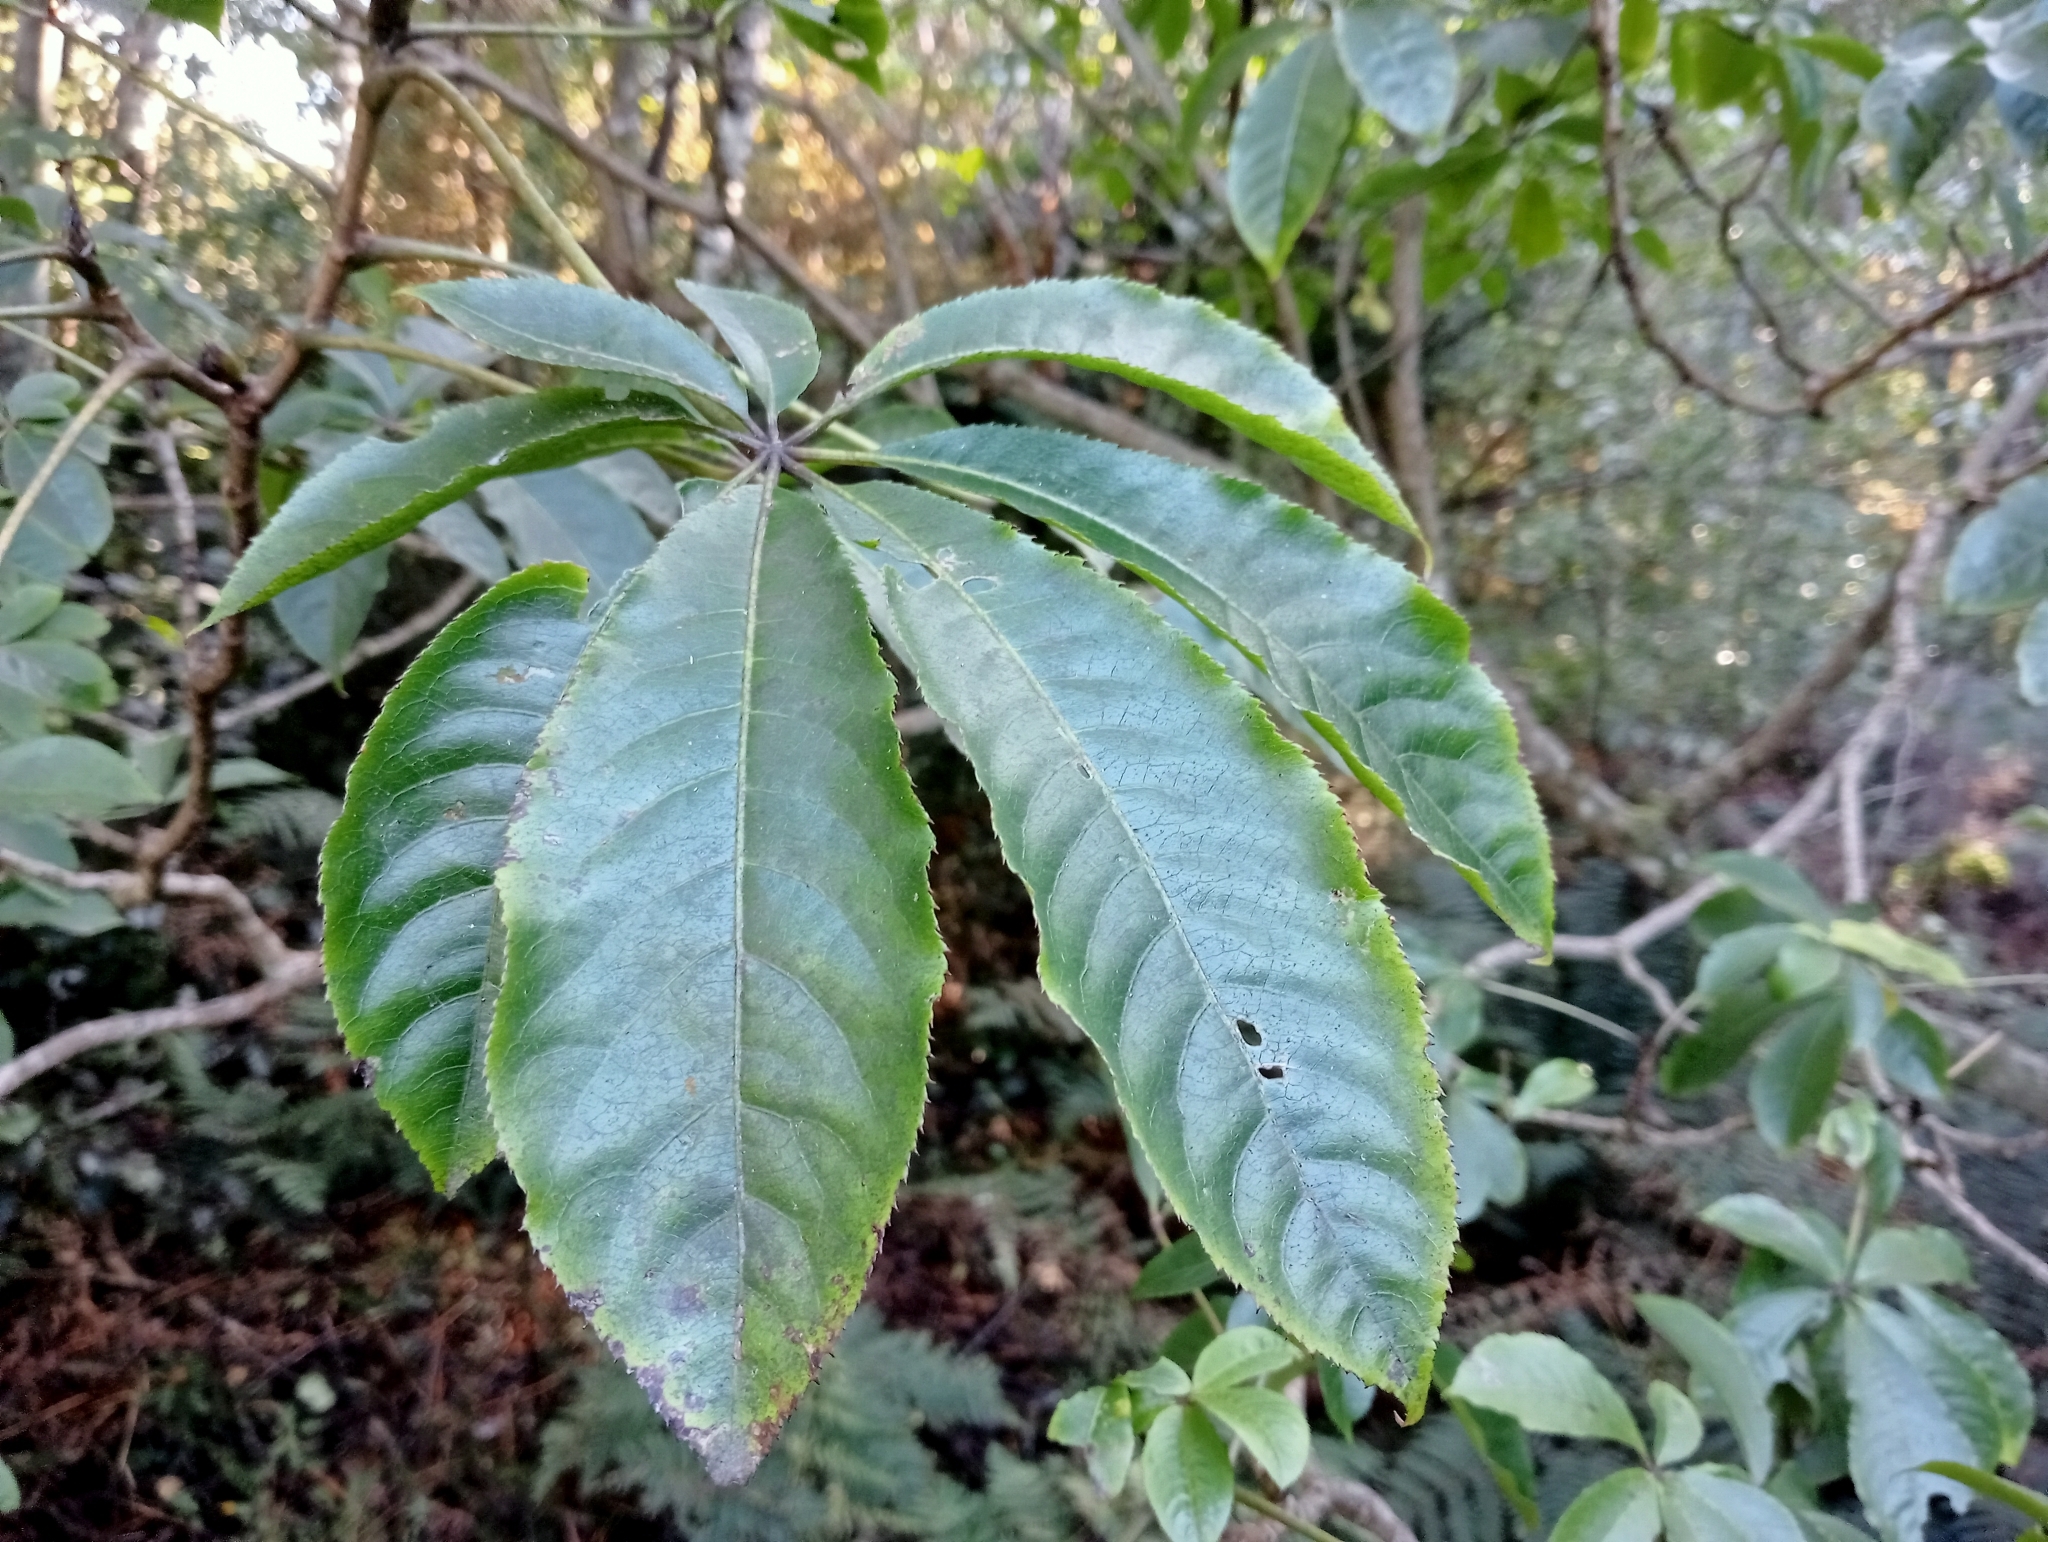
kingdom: Plantae
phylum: Tracheophyta
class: Magnoliopsida
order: Apiales
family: Araliaceae
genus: Schefflera
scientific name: Schefflera digitata
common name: Pate
